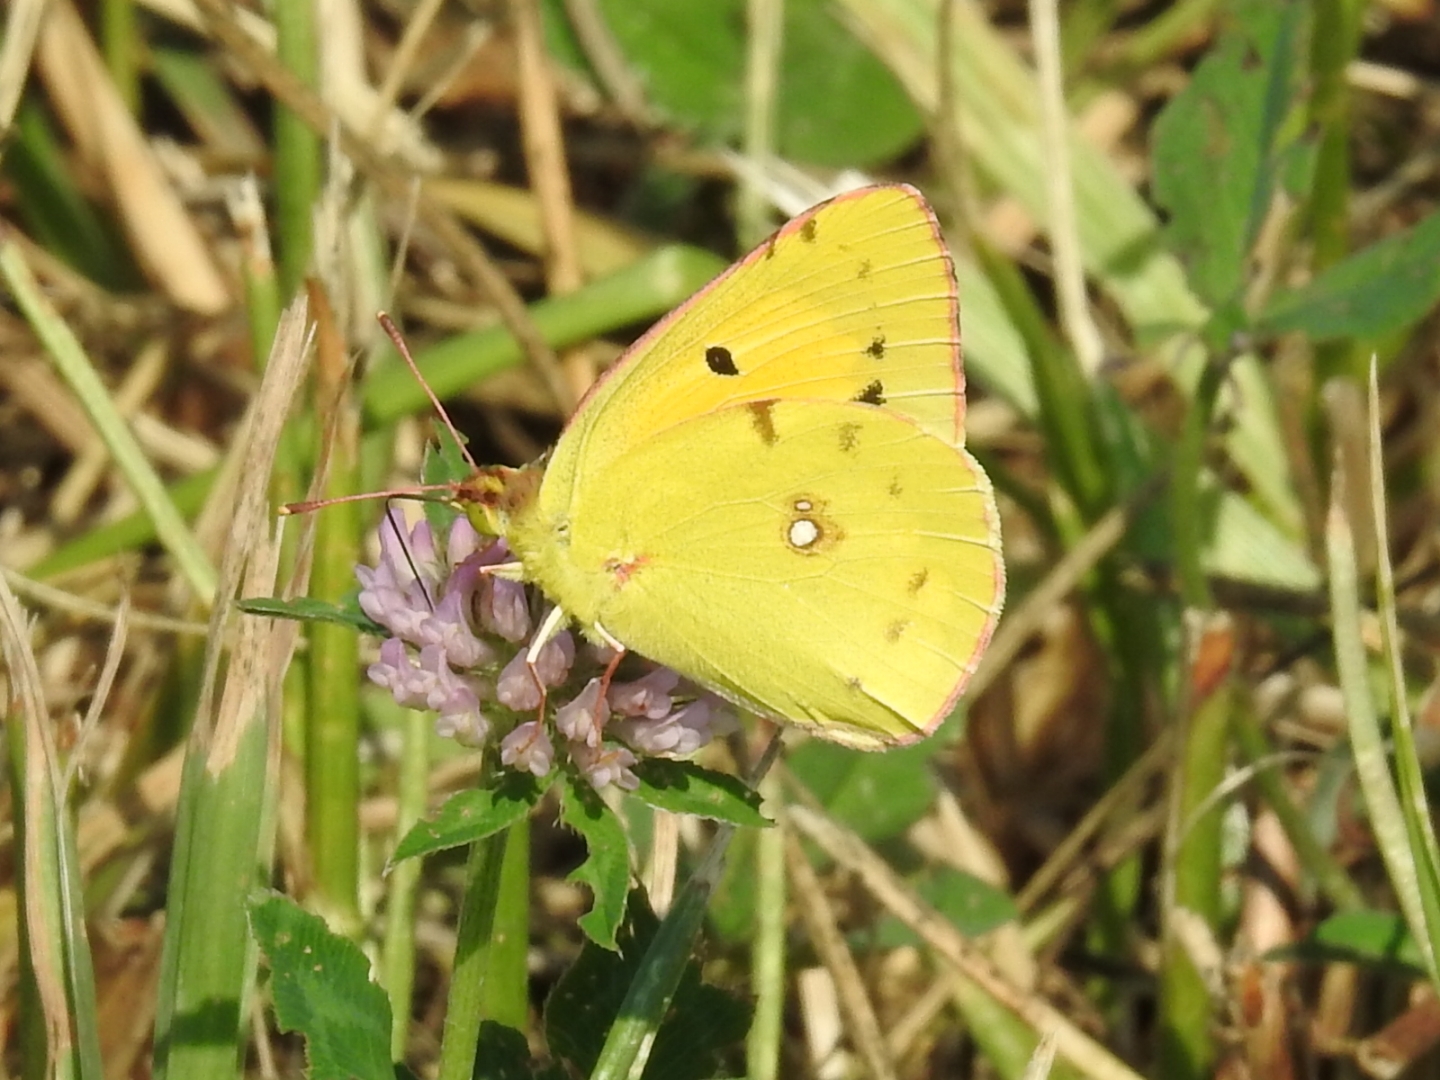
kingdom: Animalia
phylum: Arthropoda
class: Insecta
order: Lepidoptera
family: Pieridae
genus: Colias
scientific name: Colias croceus
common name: Clouded yellow
